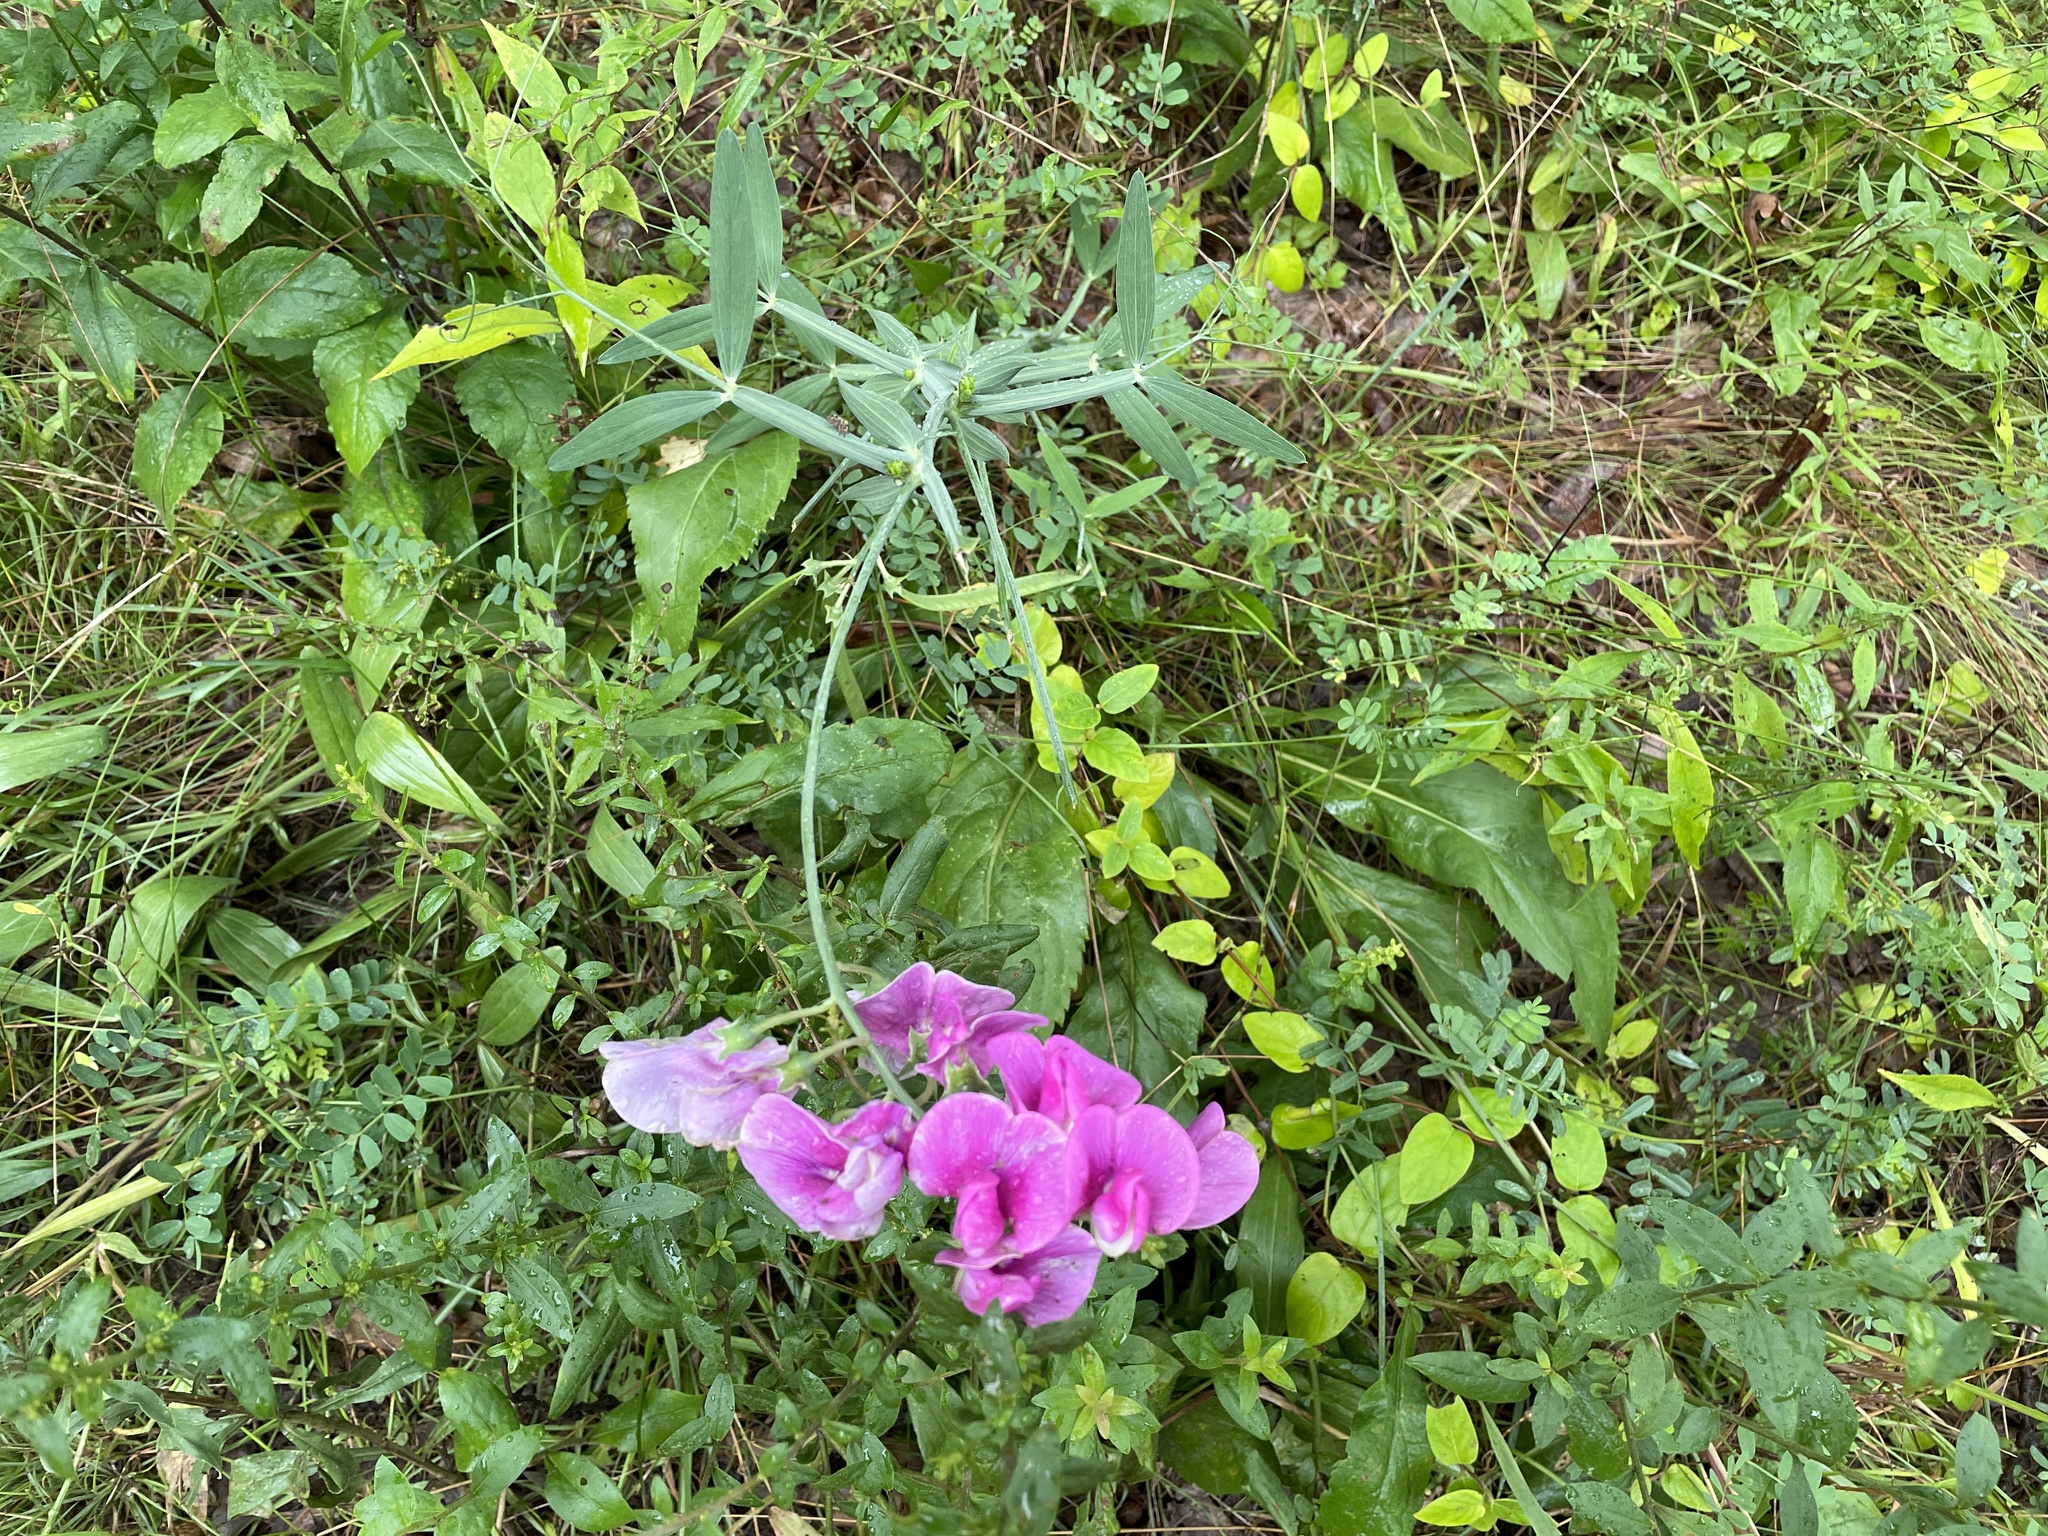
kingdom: Plantae
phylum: Tracheophyta
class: Magnoliopsida
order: Fabales
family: Fabaceae
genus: Lathyrus
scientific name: Lathyrus latifolius
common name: Perennial pea
